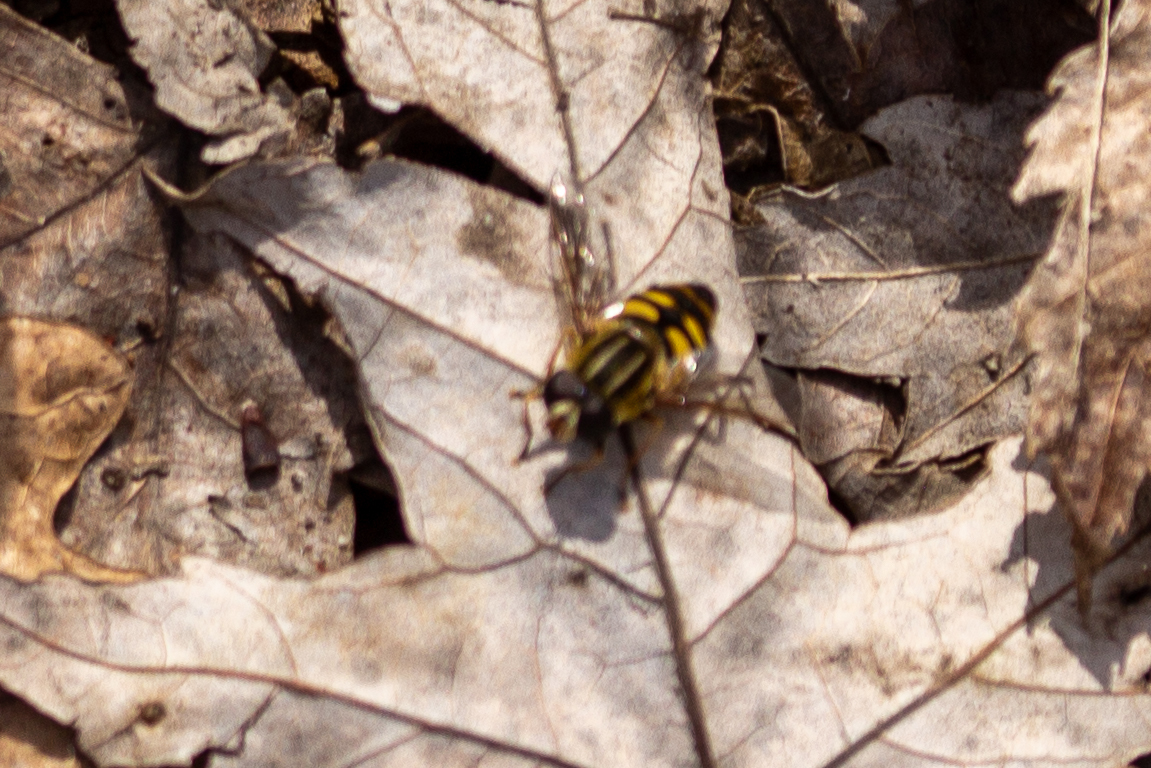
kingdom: Animalia
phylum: Arthropoda
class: Insecta
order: Diptera
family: Syrphidae
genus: Helophilus
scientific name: Helophilus fasciatus
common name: Narrow-headed marsh fly
